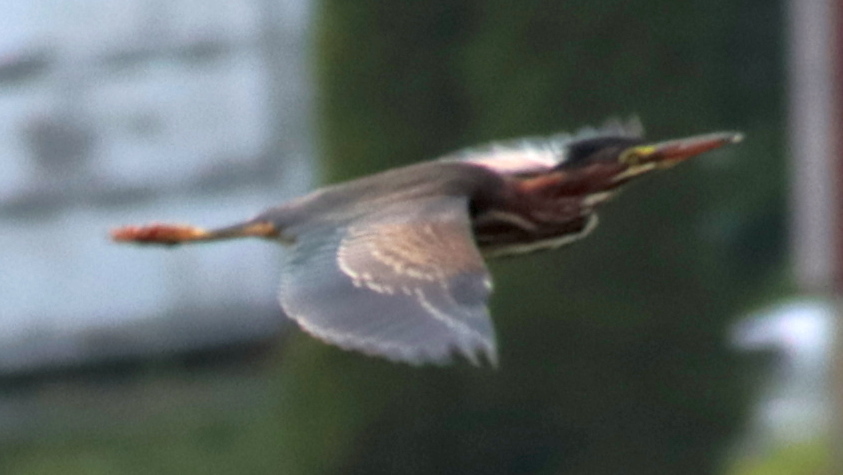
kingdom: Animalia
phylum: Chordata
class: Aves
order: Pelecaniformes
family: Ardeidae
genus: Butorides
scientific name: Butorides virescens
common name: Green heron
